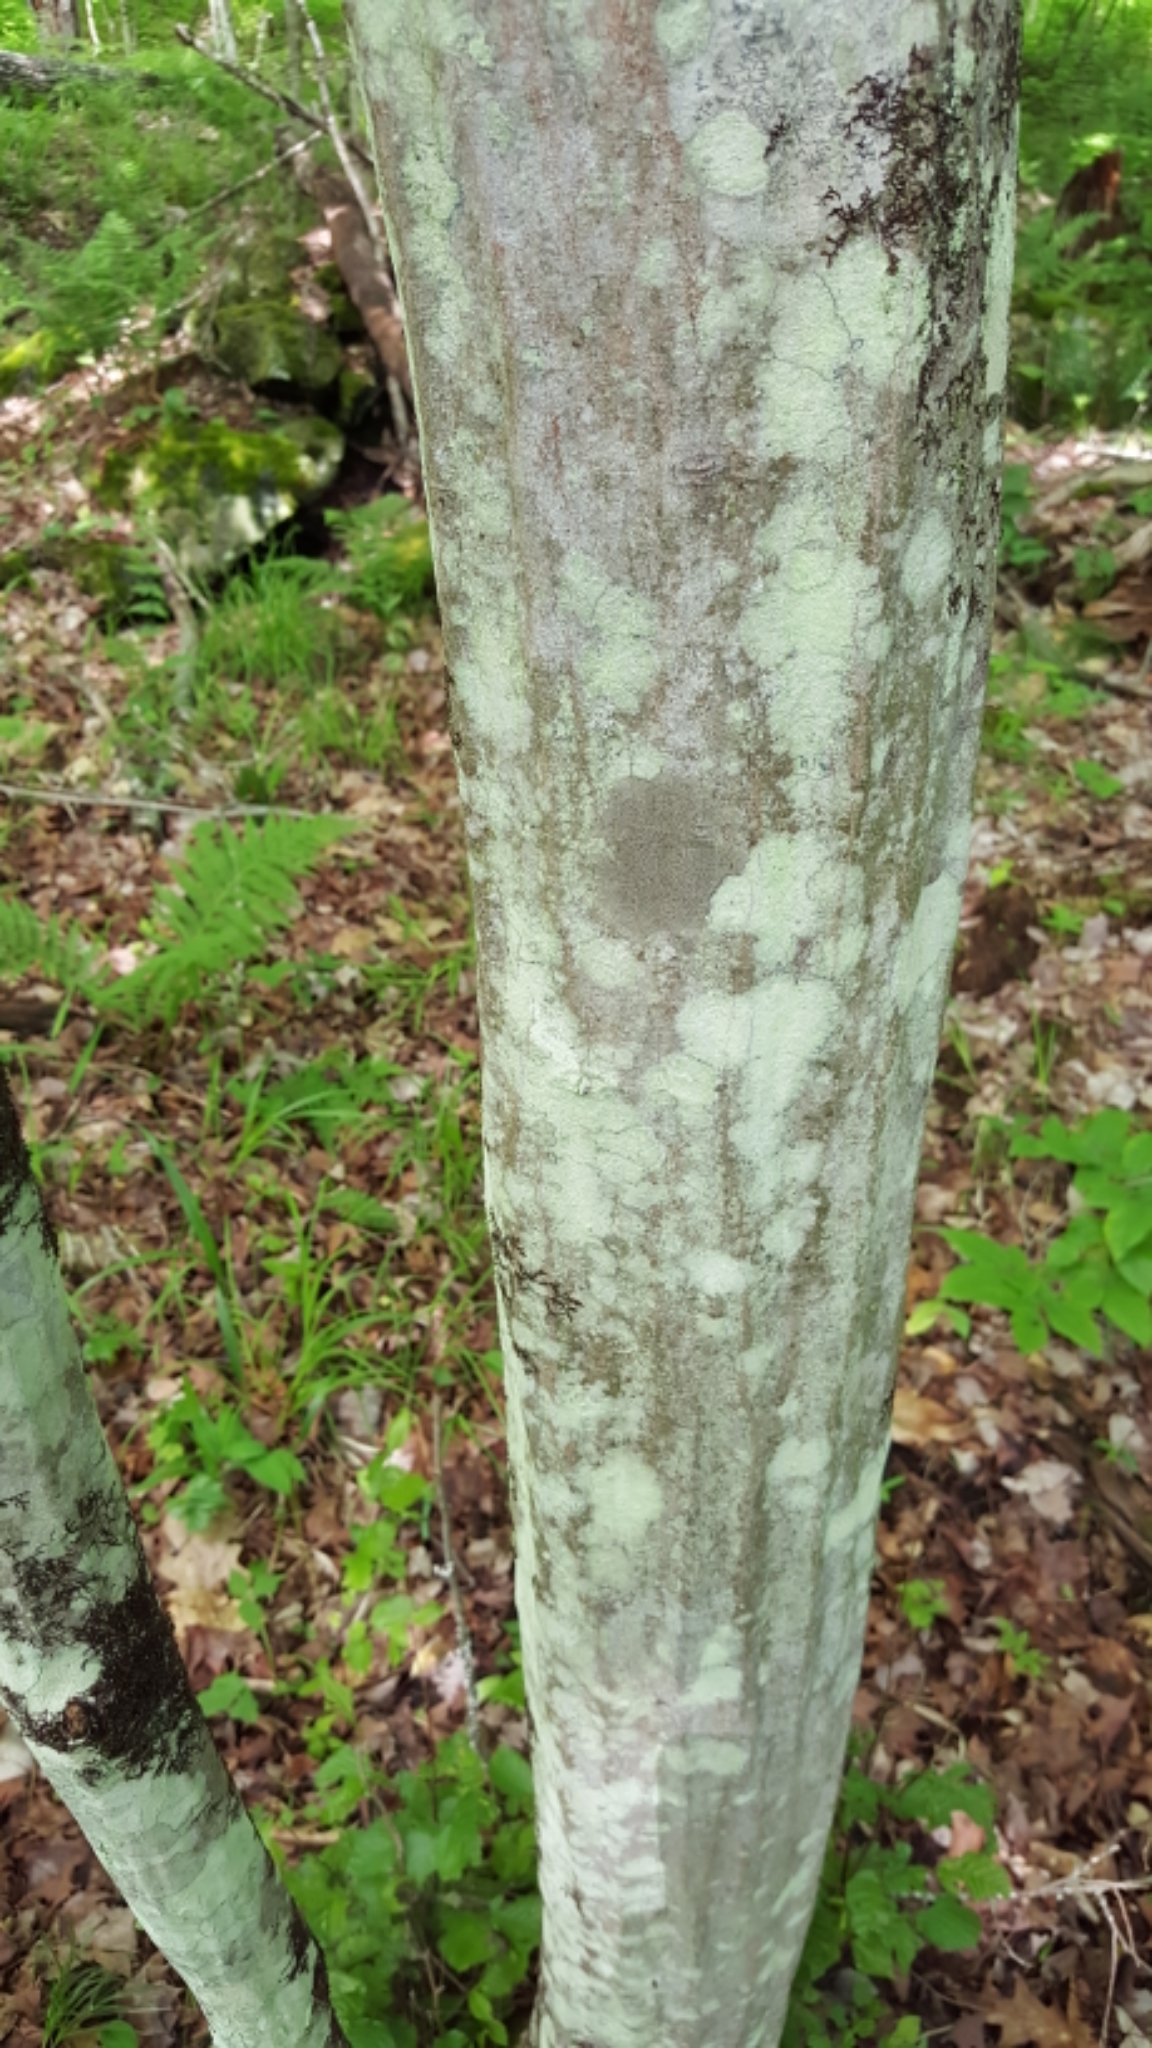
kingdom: Plantae
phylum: Tracheophyta
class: Magnoliopsida
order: Fagales
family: Betulaceae
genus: Carpinus
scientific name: Carpinus caroliniana
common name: American hornbeam
